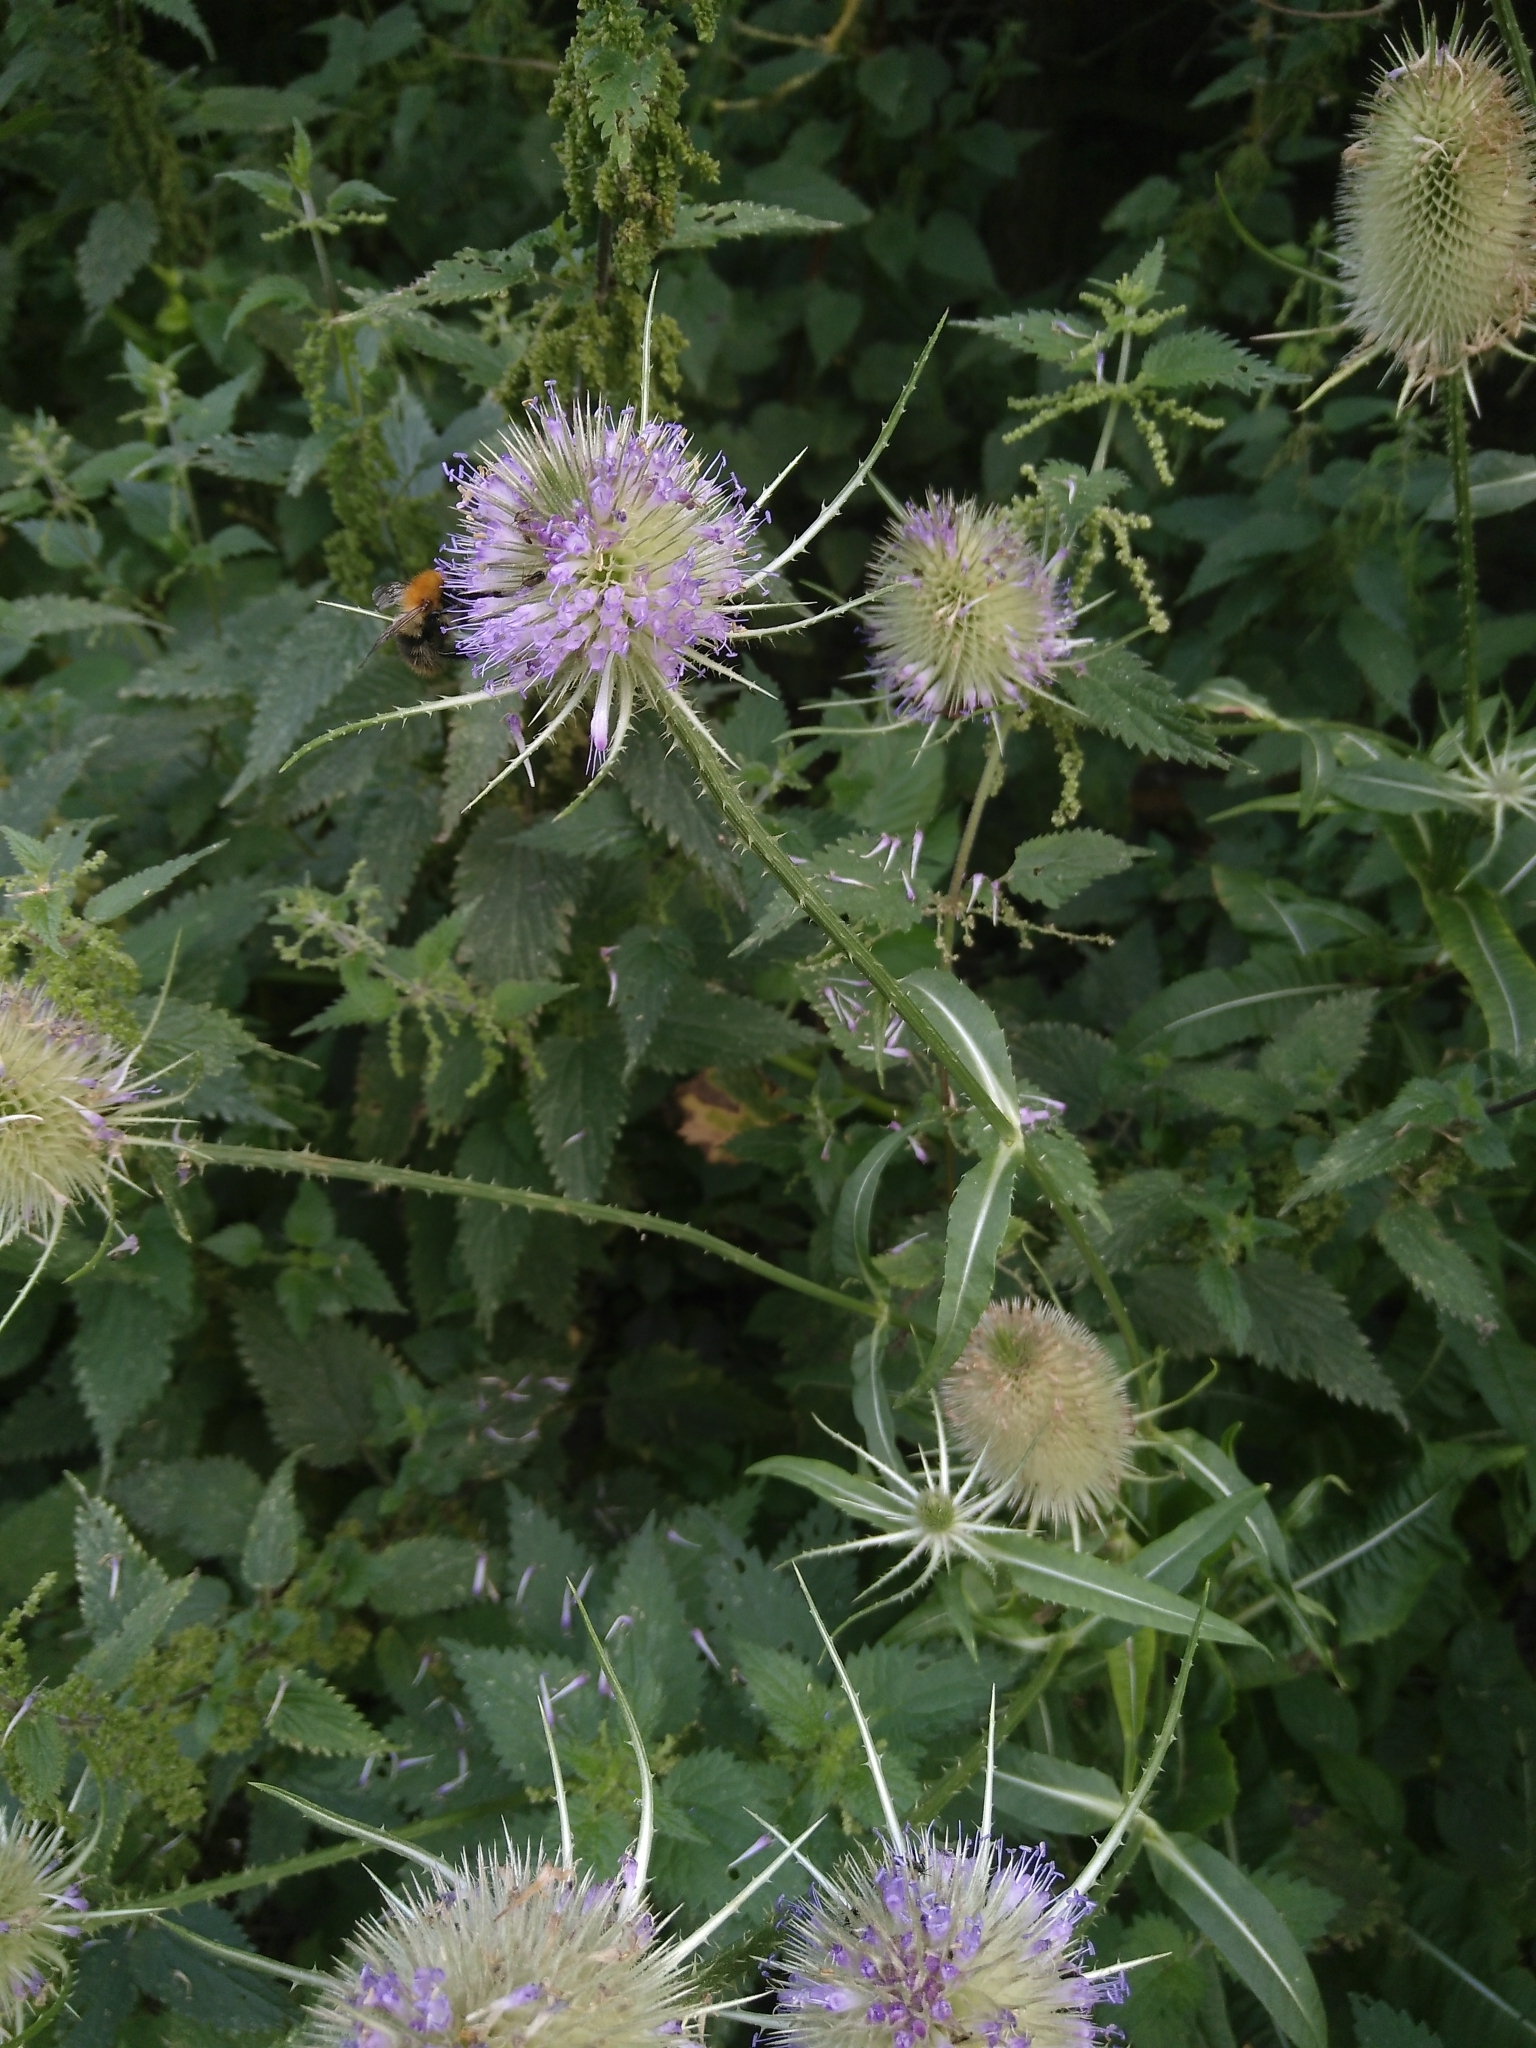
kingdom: Plantae
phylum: Tracheophyta
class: Magnoliopsida
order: Dipsacales
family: Caprifoliaceae
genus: Dipsacus
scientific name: Dipsacus fullonum
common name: Teasel
